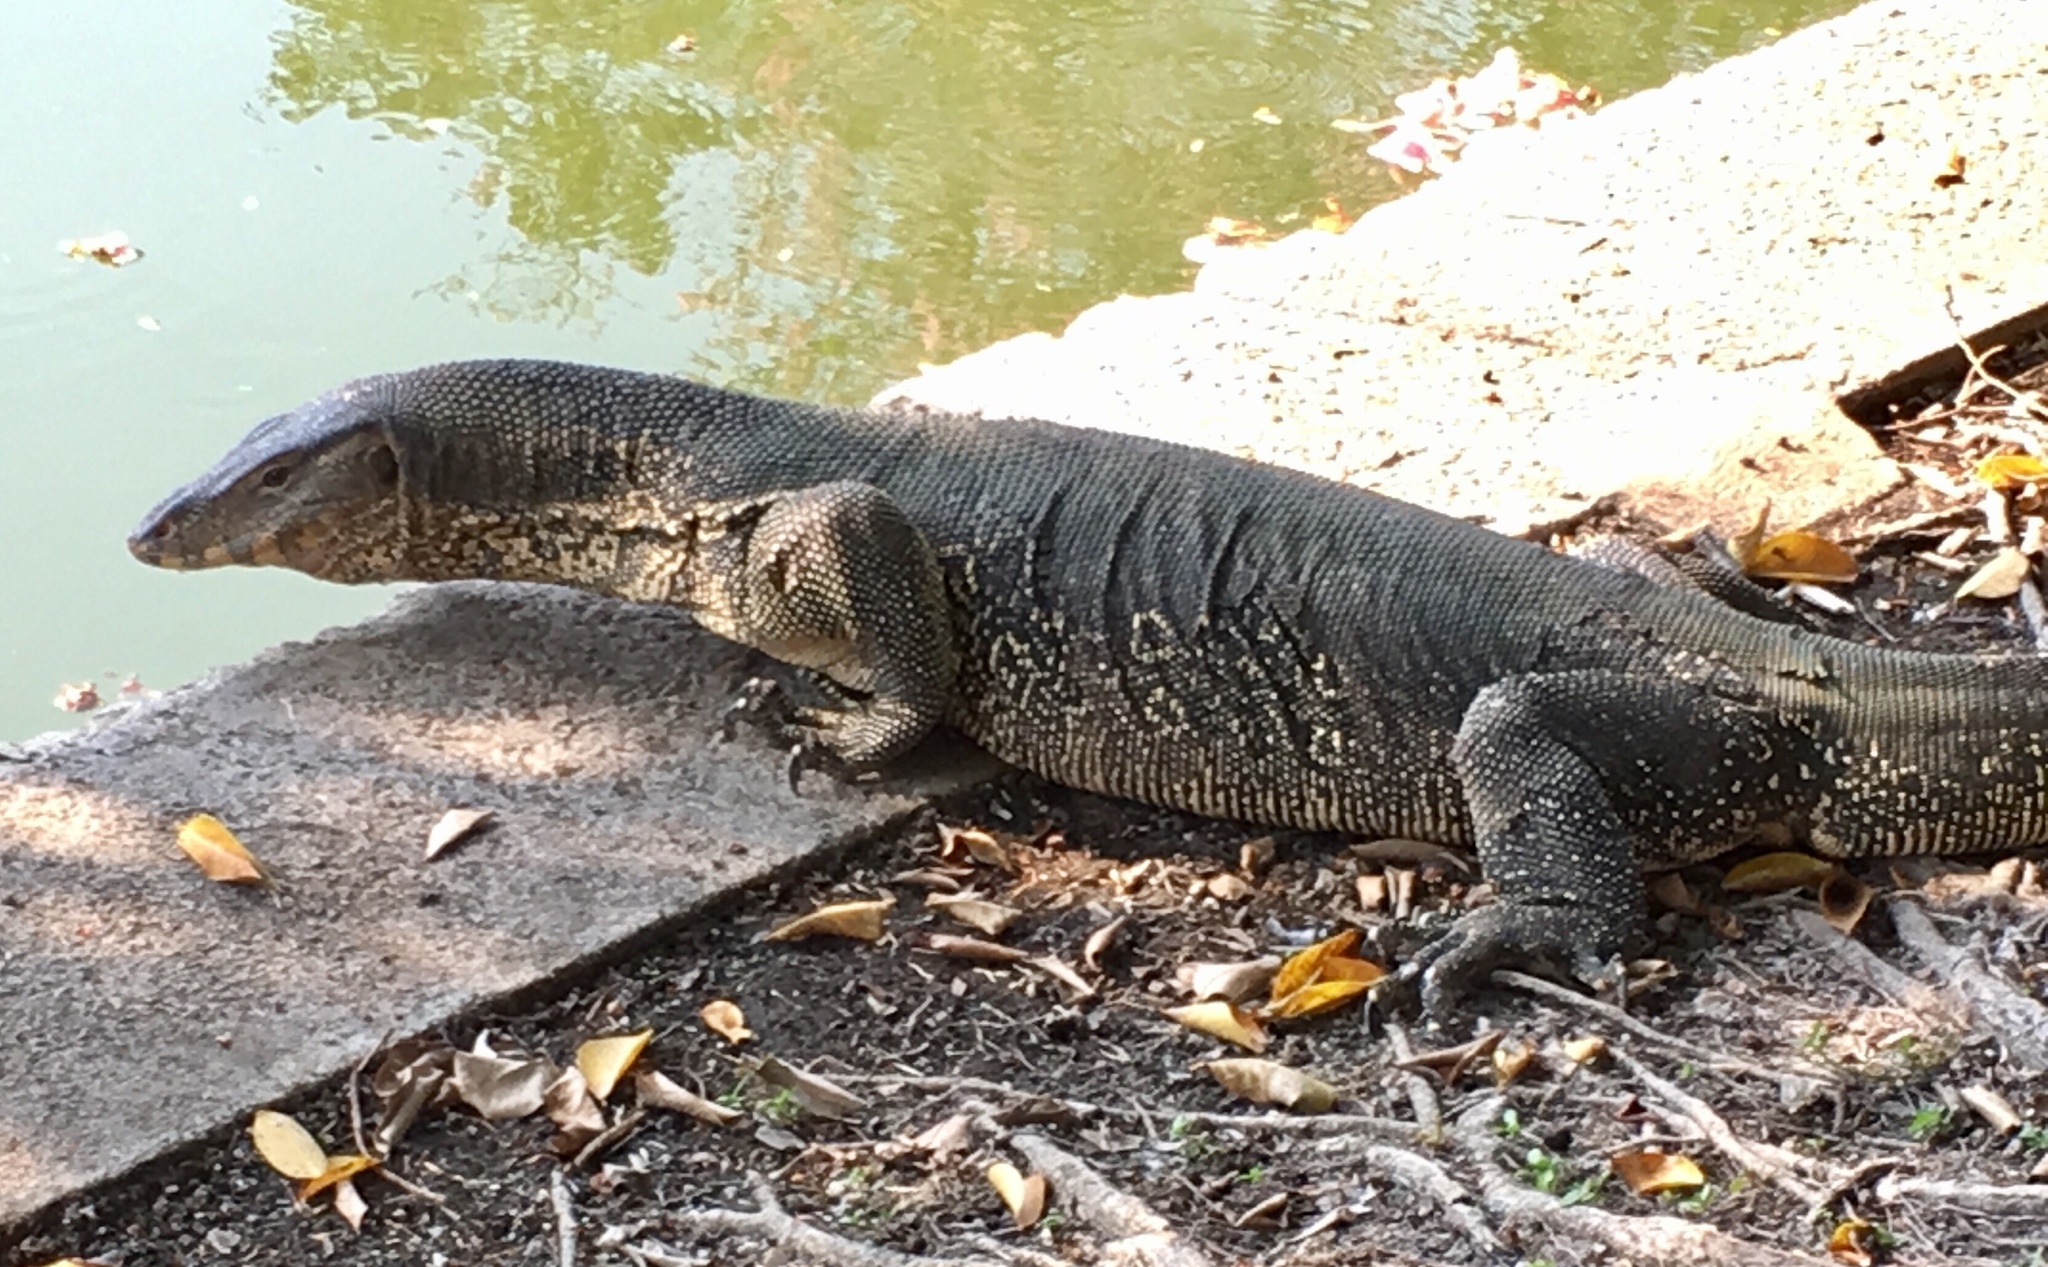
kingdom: Animalia
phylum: Chordata
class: Squamata
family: Varanidae
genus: Varanus
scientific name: Varanus salvator
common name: Common water monitor
